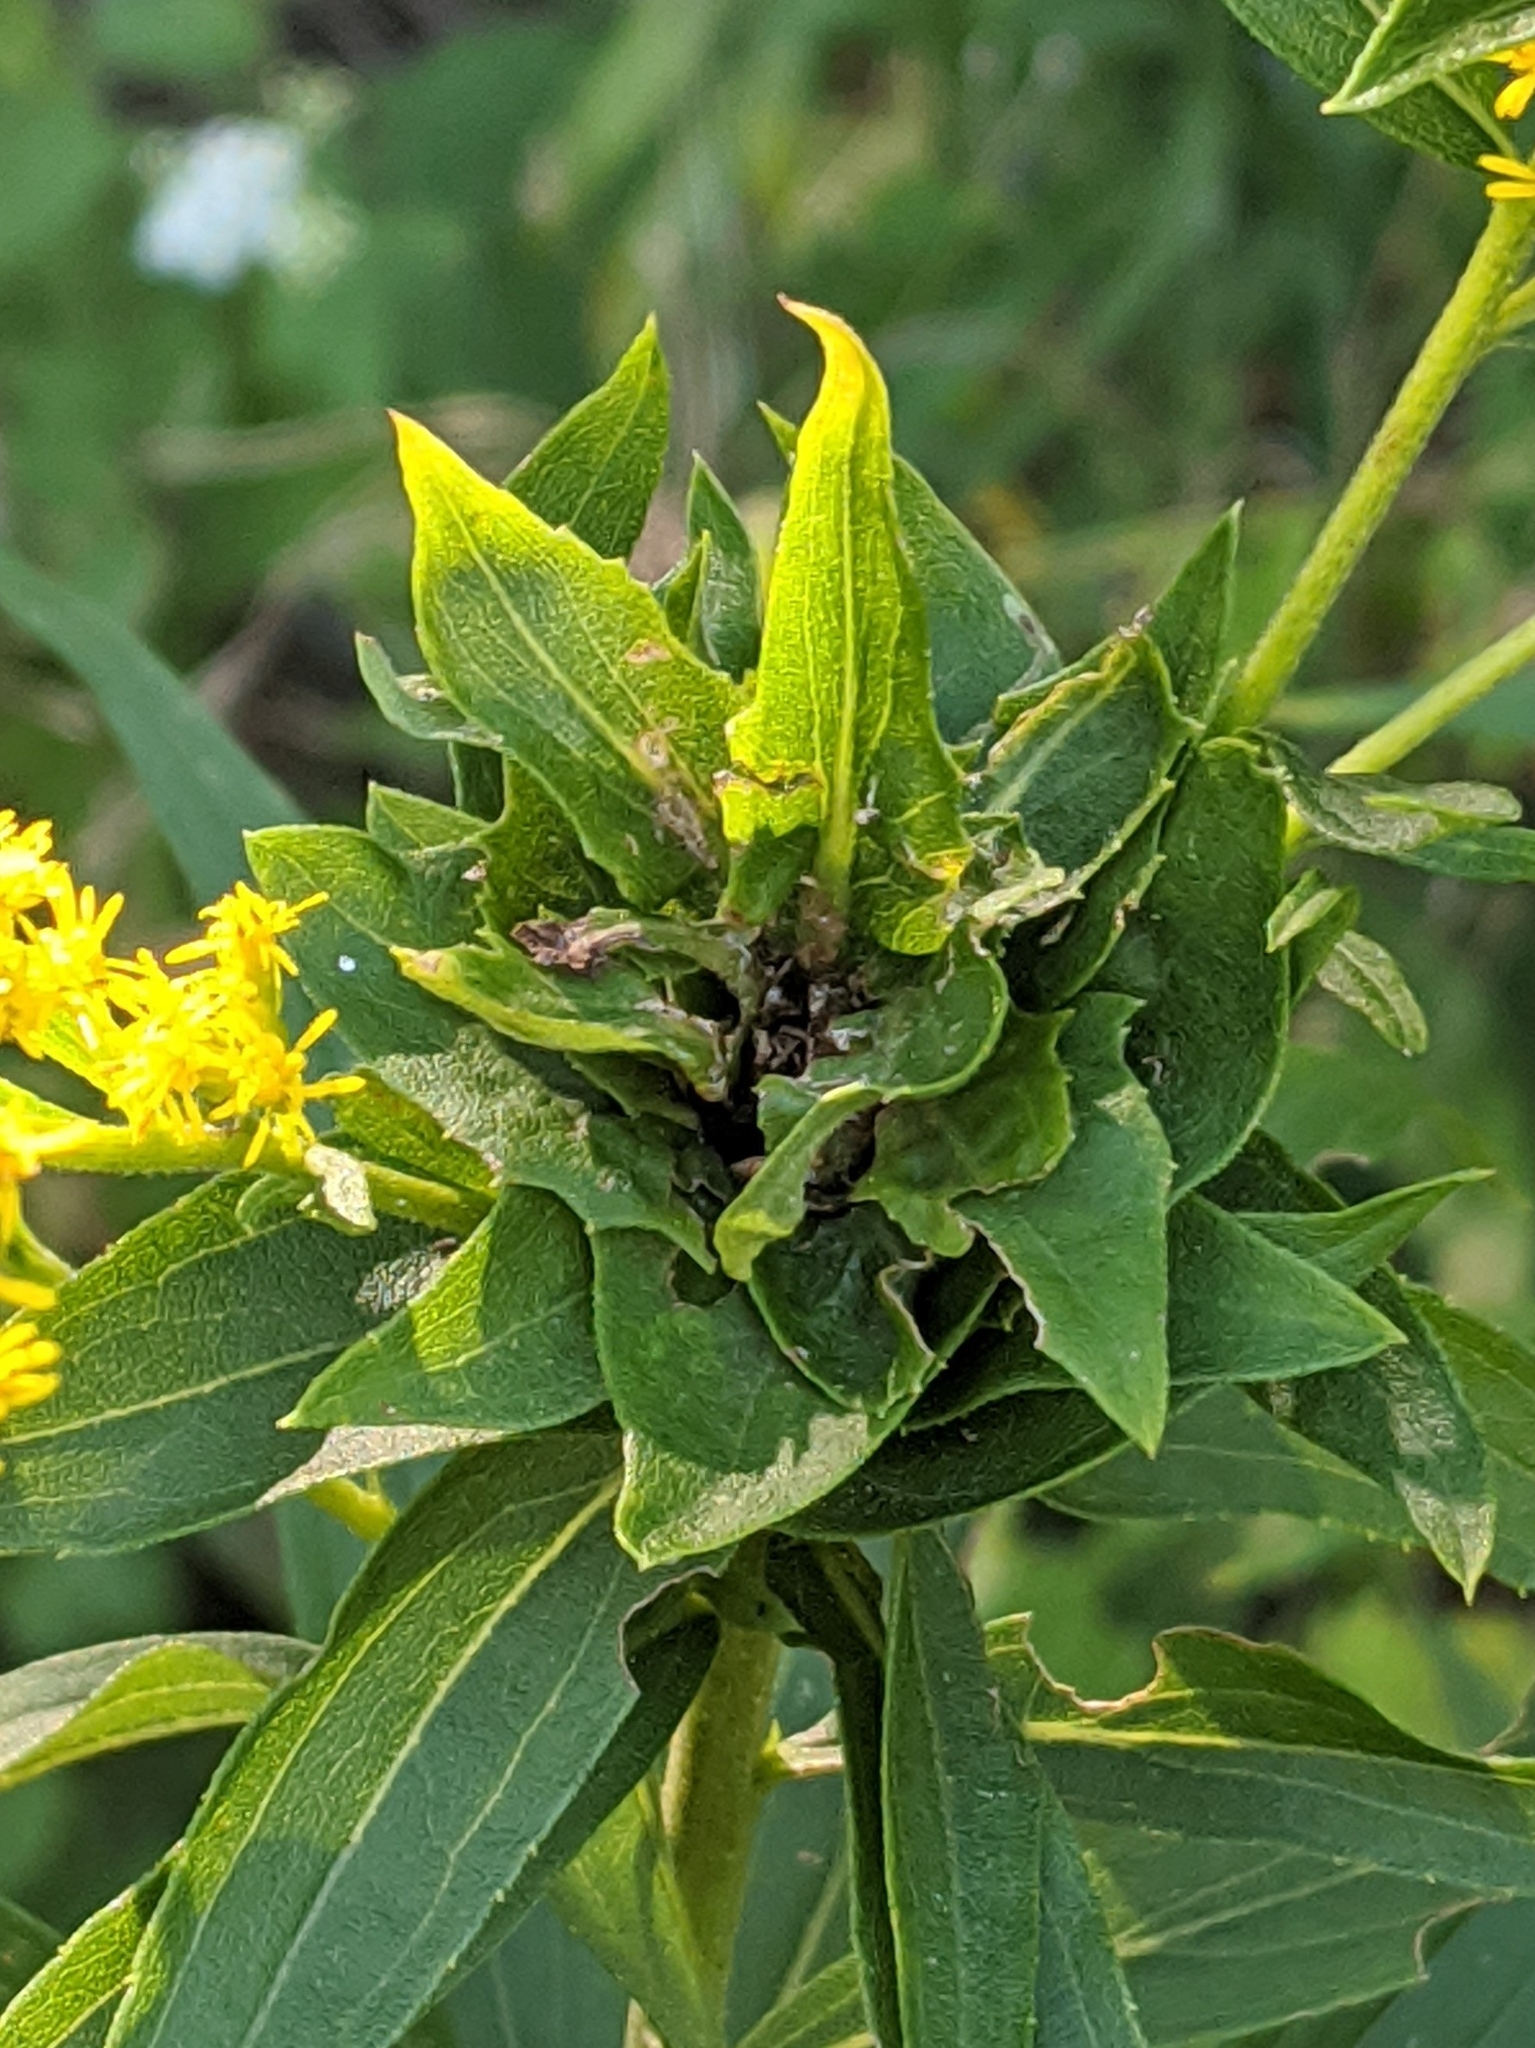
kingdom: Animalia
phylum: Arthropoda
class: Insecta
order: Diptera
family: Cecidomyiidae
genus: Rhopalomyia
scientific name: Rhopalomyia solidaginis
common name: Goldenrod bunch gall midge
